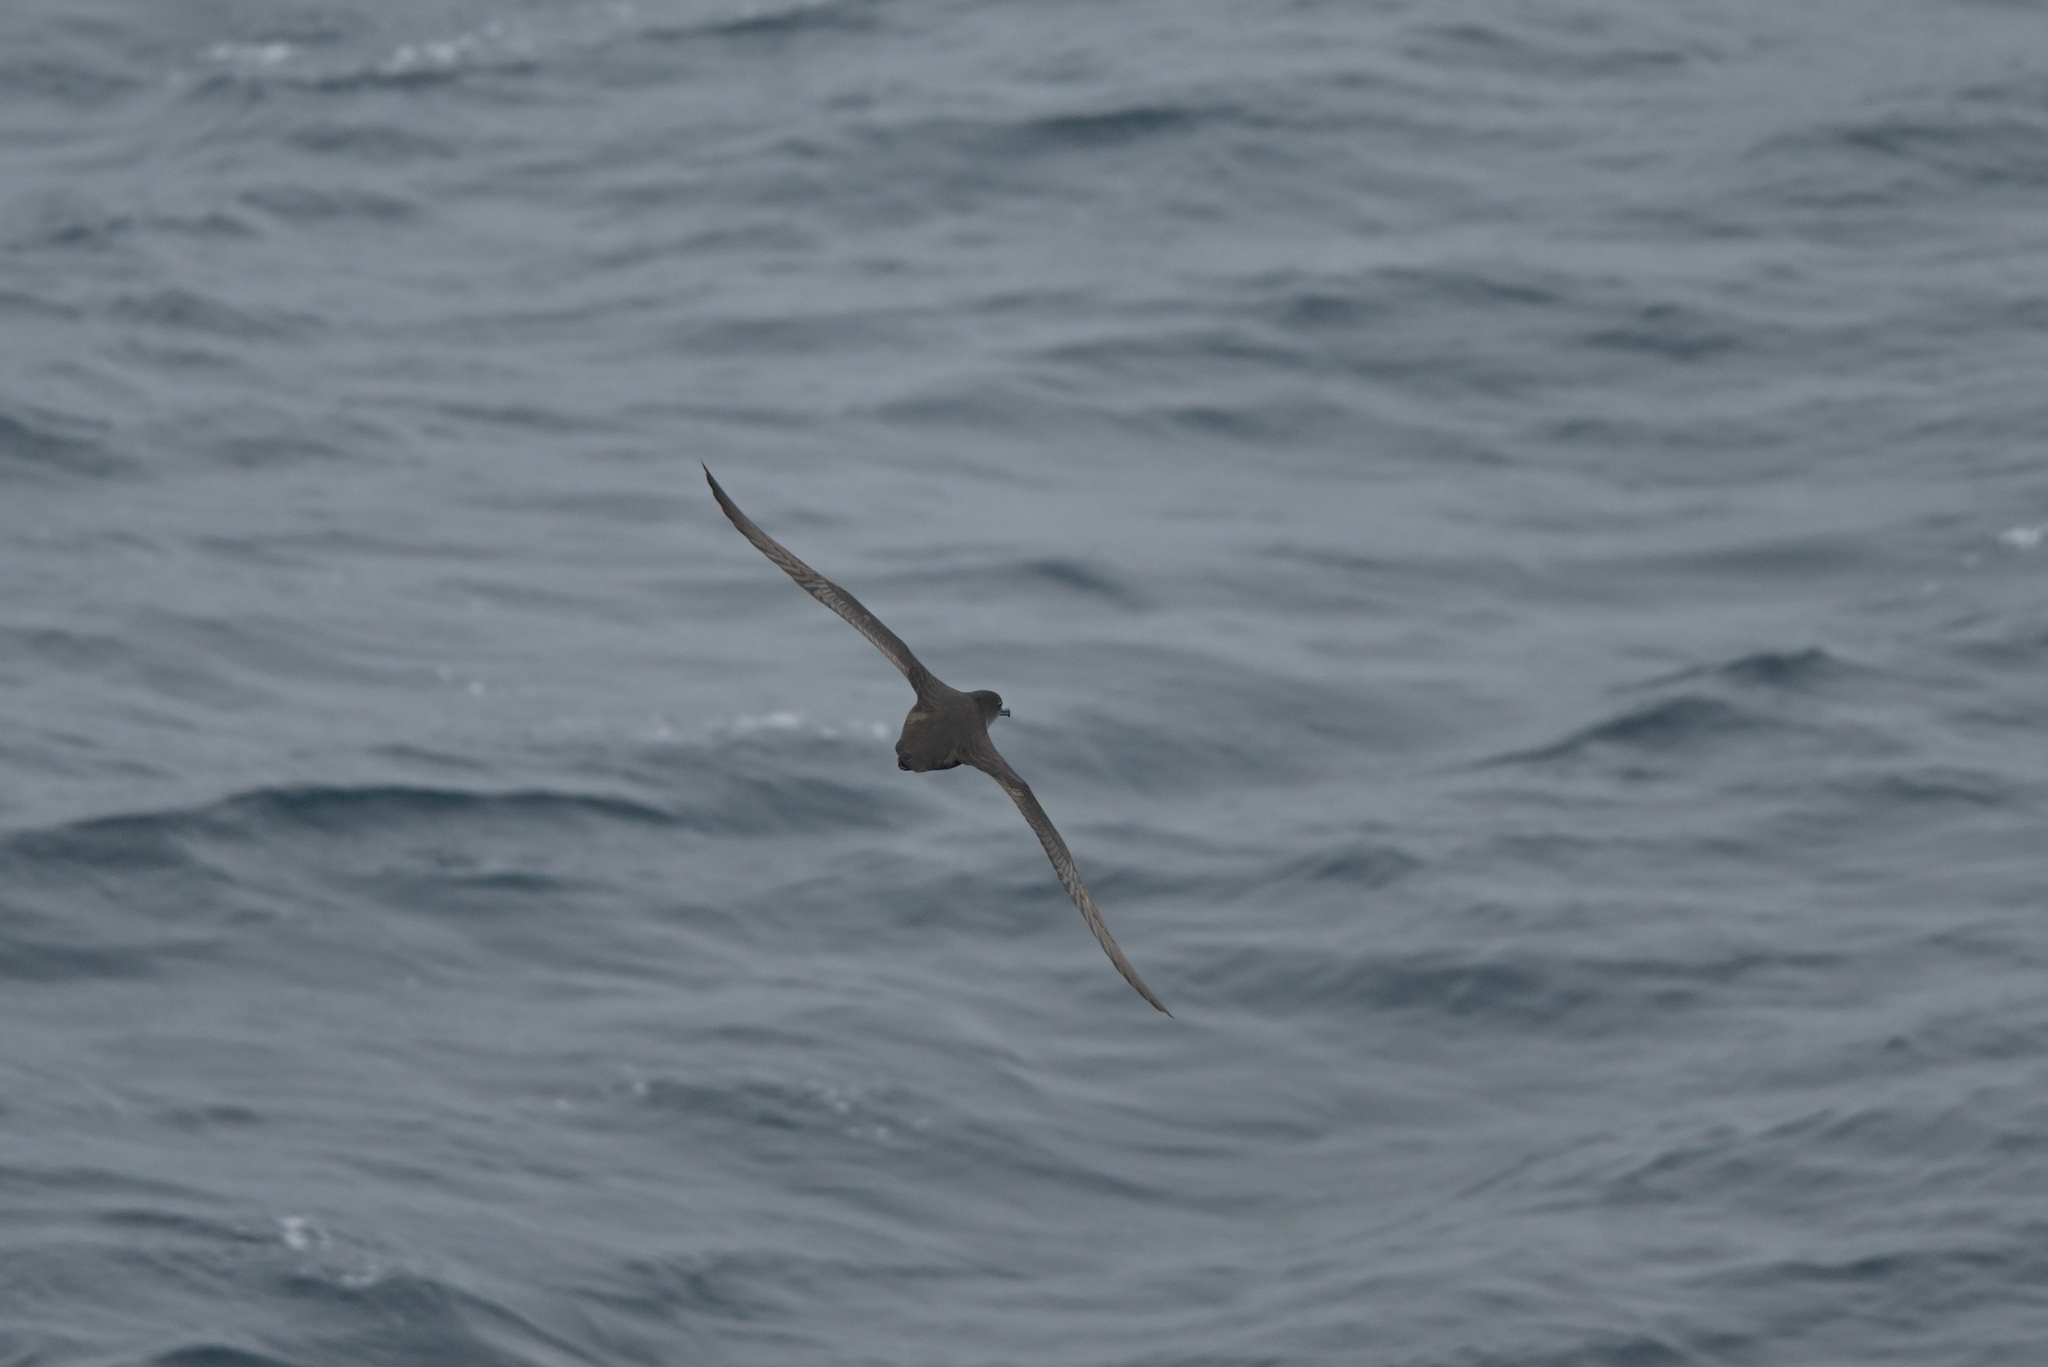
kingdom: Animalia
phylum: Chordata
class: Aves
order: Procellariiformes
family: Procellariidae
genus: Puffinus
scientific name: Puffinus griseus
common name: Sooty shearwater
